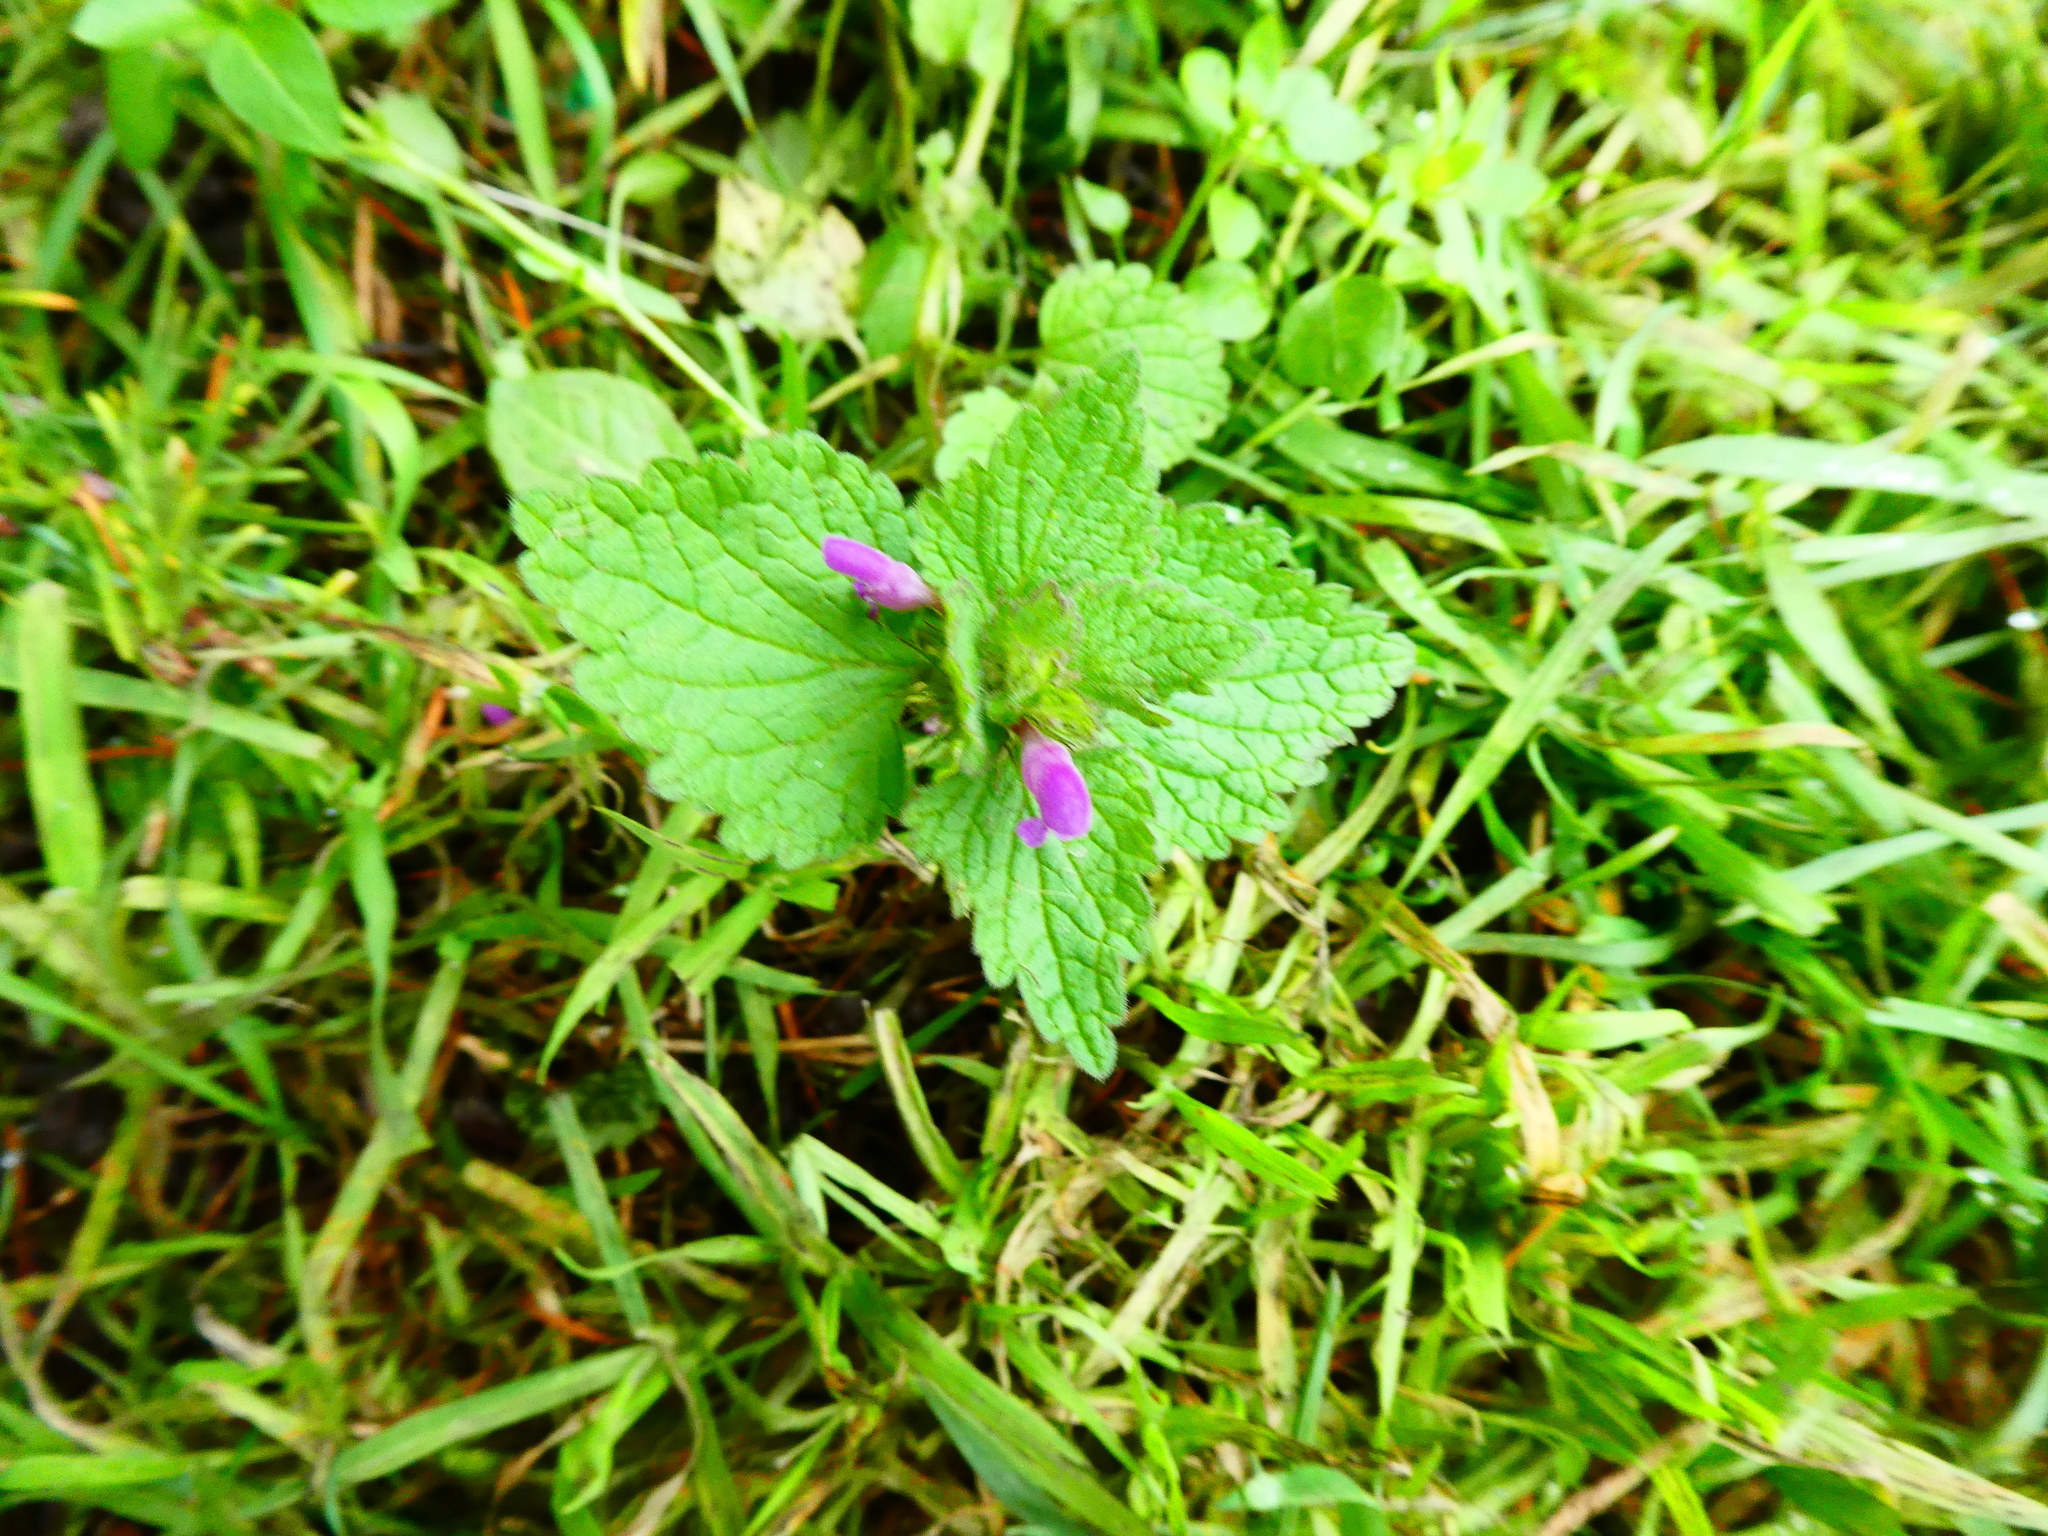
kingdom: Plantae
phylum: Tracheophyta
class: Magnoliopsida
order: Lamiales
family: Lamiaceae
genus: Lamium
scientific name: Lamium purpureum
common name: Red dead-nettle
